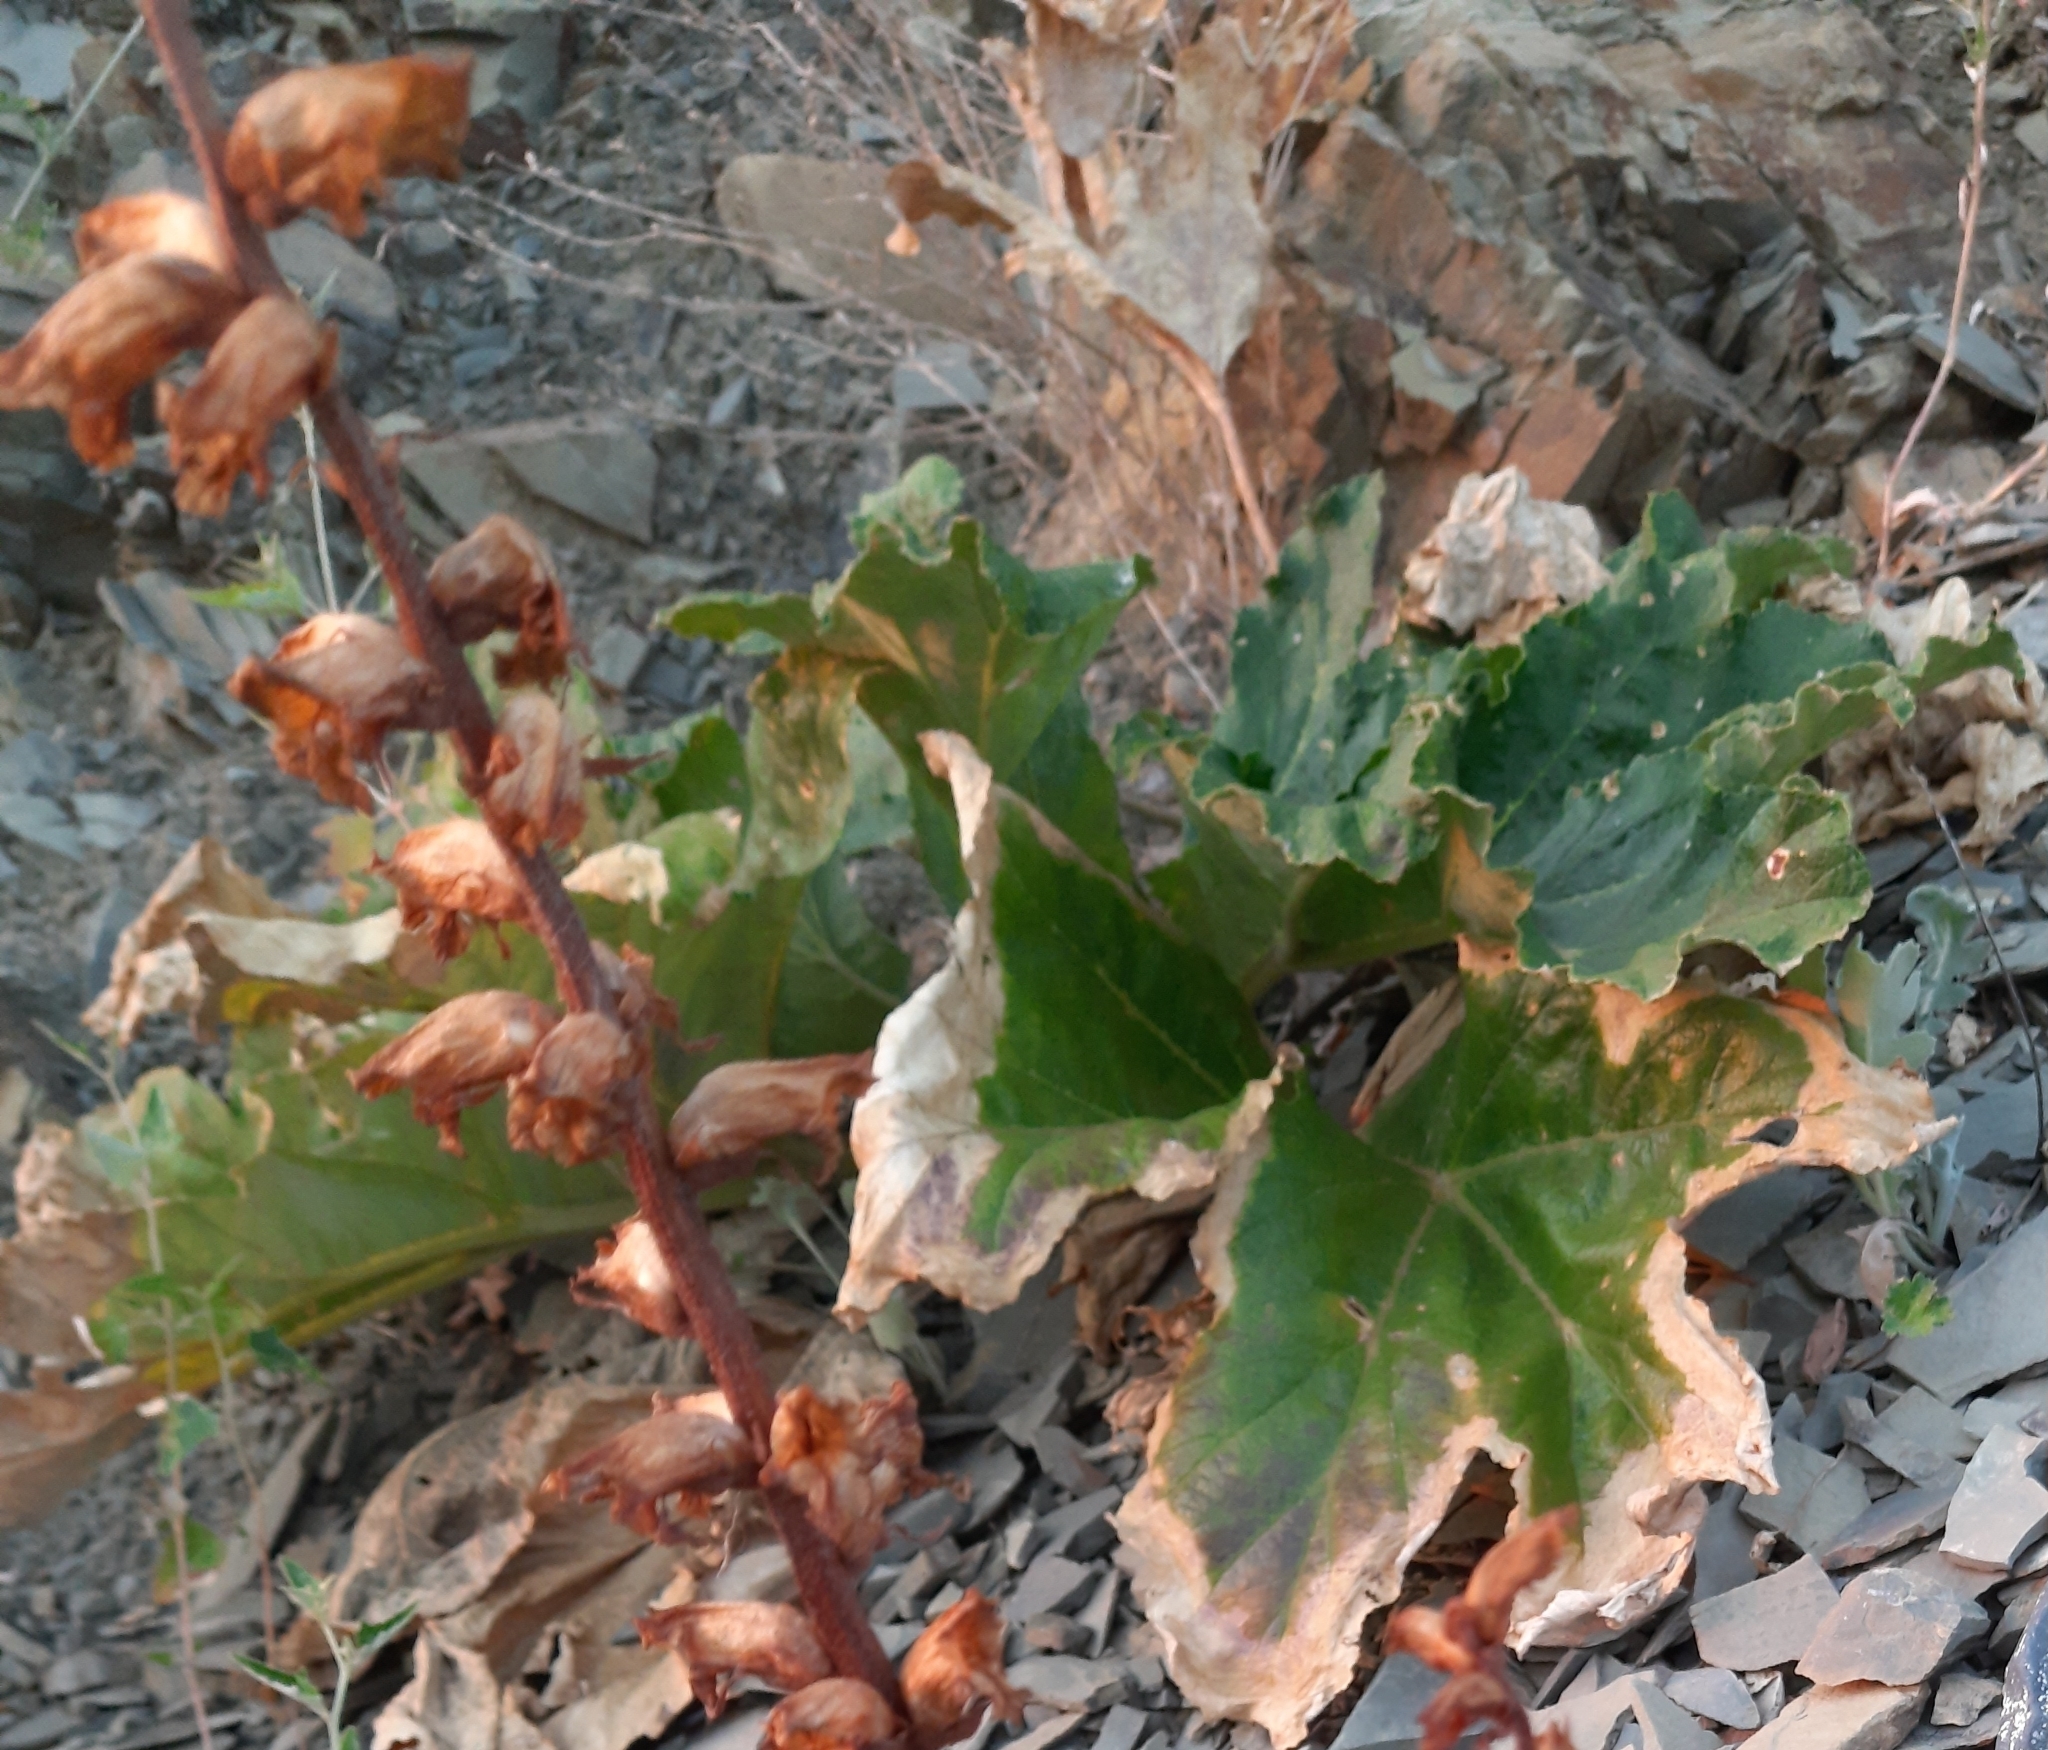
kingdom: Plantae
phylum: Tracheophyta
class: Magnoliopsida
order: Apiales
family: Apiaceae
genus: Heracleum
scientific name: Heracleum stevenii
